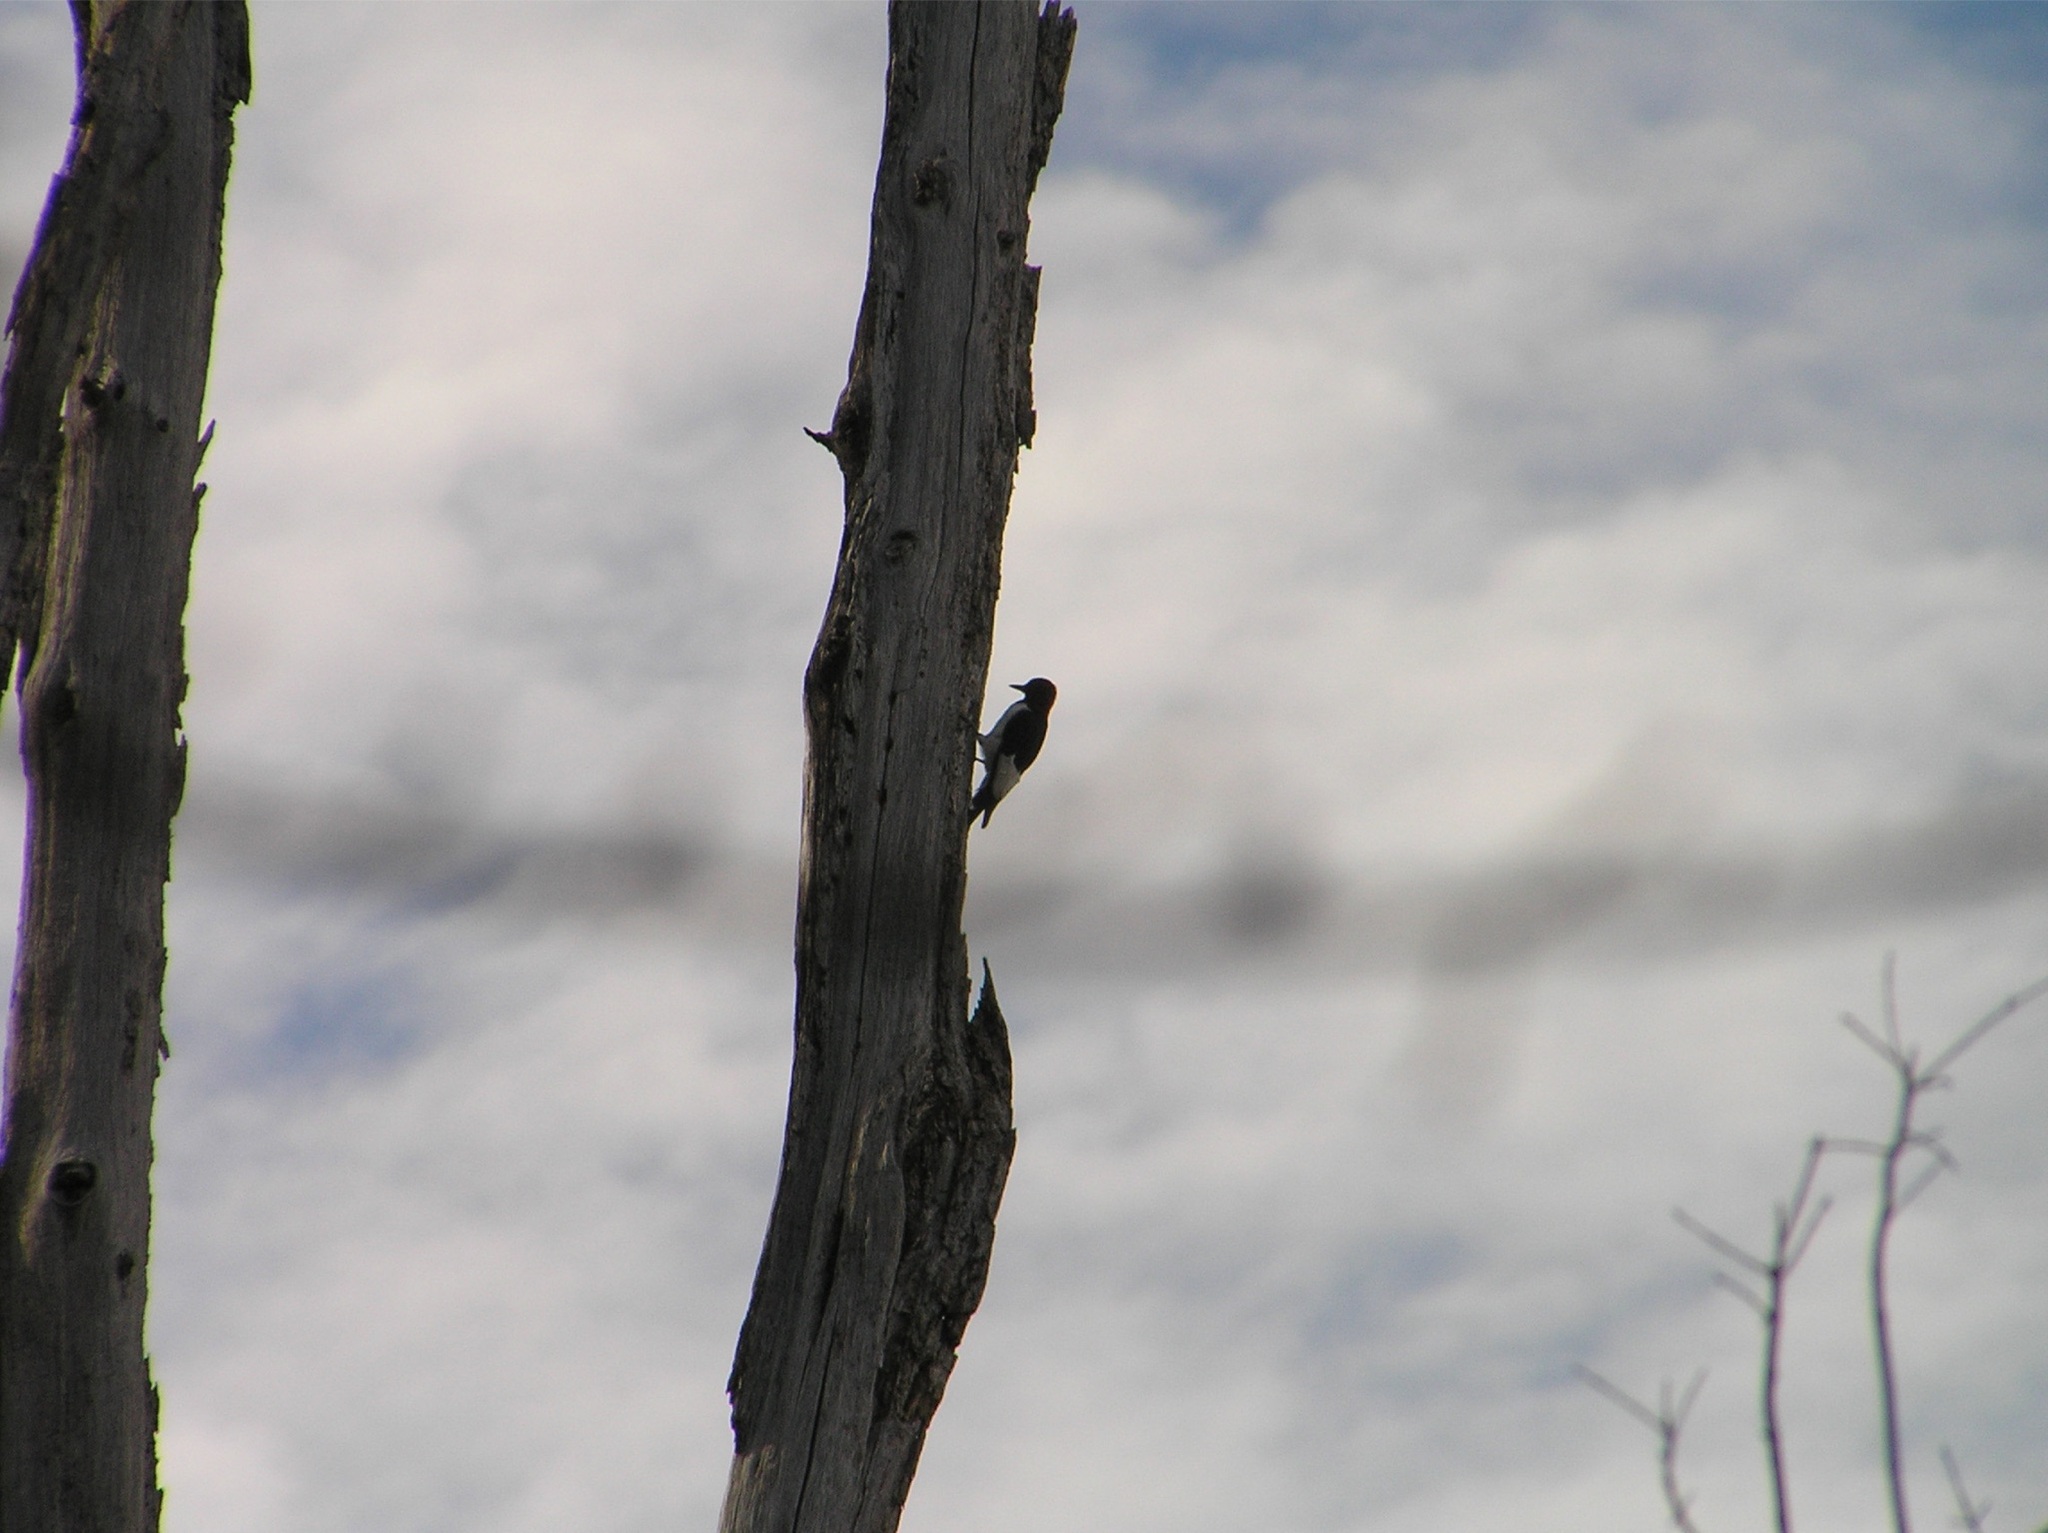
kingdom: Animalia
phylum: Chordata
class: Aves
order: Piciformes
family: Picidae
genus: Melanerpes
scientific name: Melanerpes erythrocephalus
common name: Red-headed woodpecker
